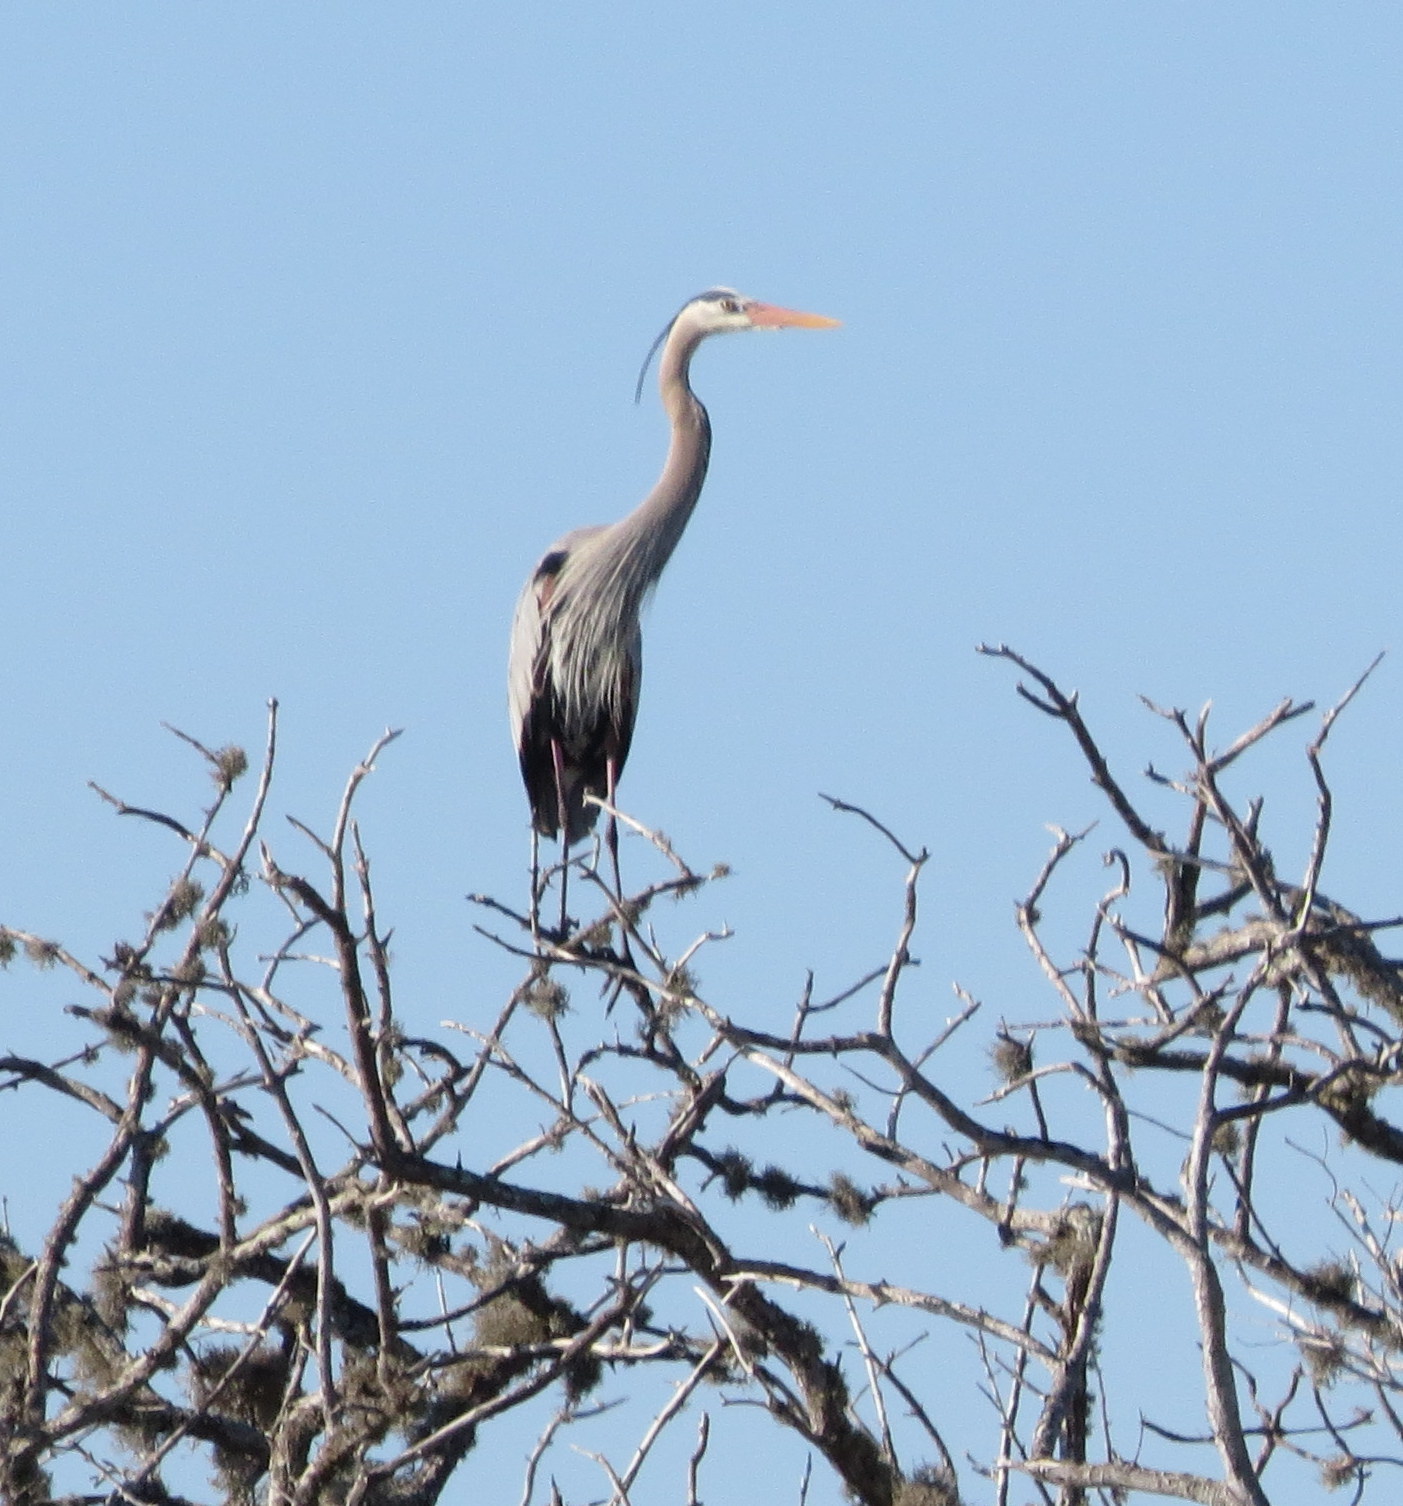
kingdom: Animalia
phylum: Chordata
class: Aves
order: Pelecaniformes
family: Ardeidae
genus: Ardea
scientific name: Ardea herodias
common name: Great blue heron
